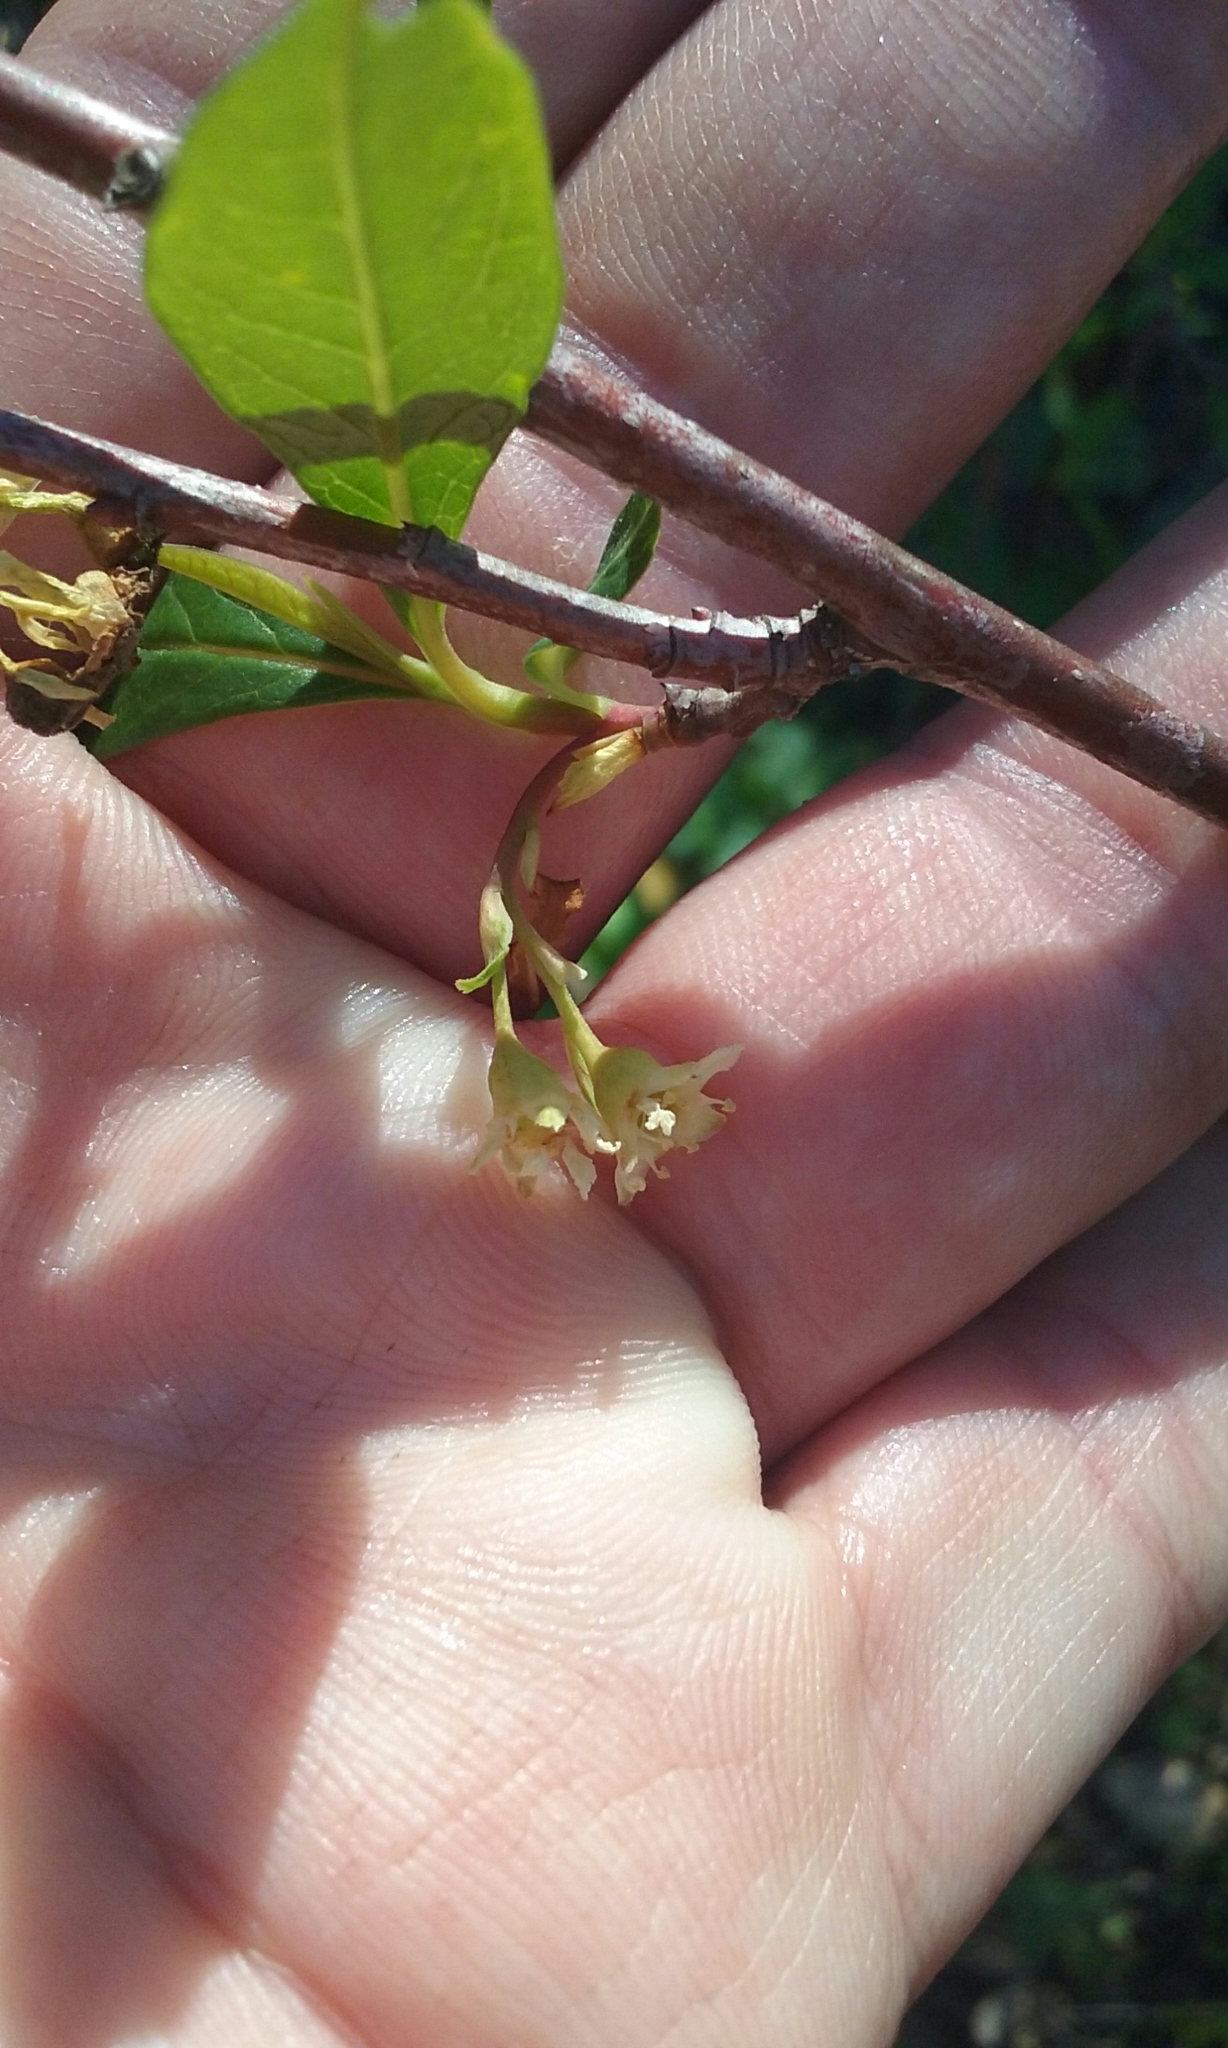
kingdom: Plantae
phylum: Tracheophyta
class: Magnoliopsida
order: Rosales
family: Rosaceae
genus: Oemleria
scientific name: Oemleria cerasiformis
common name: Osoberry
